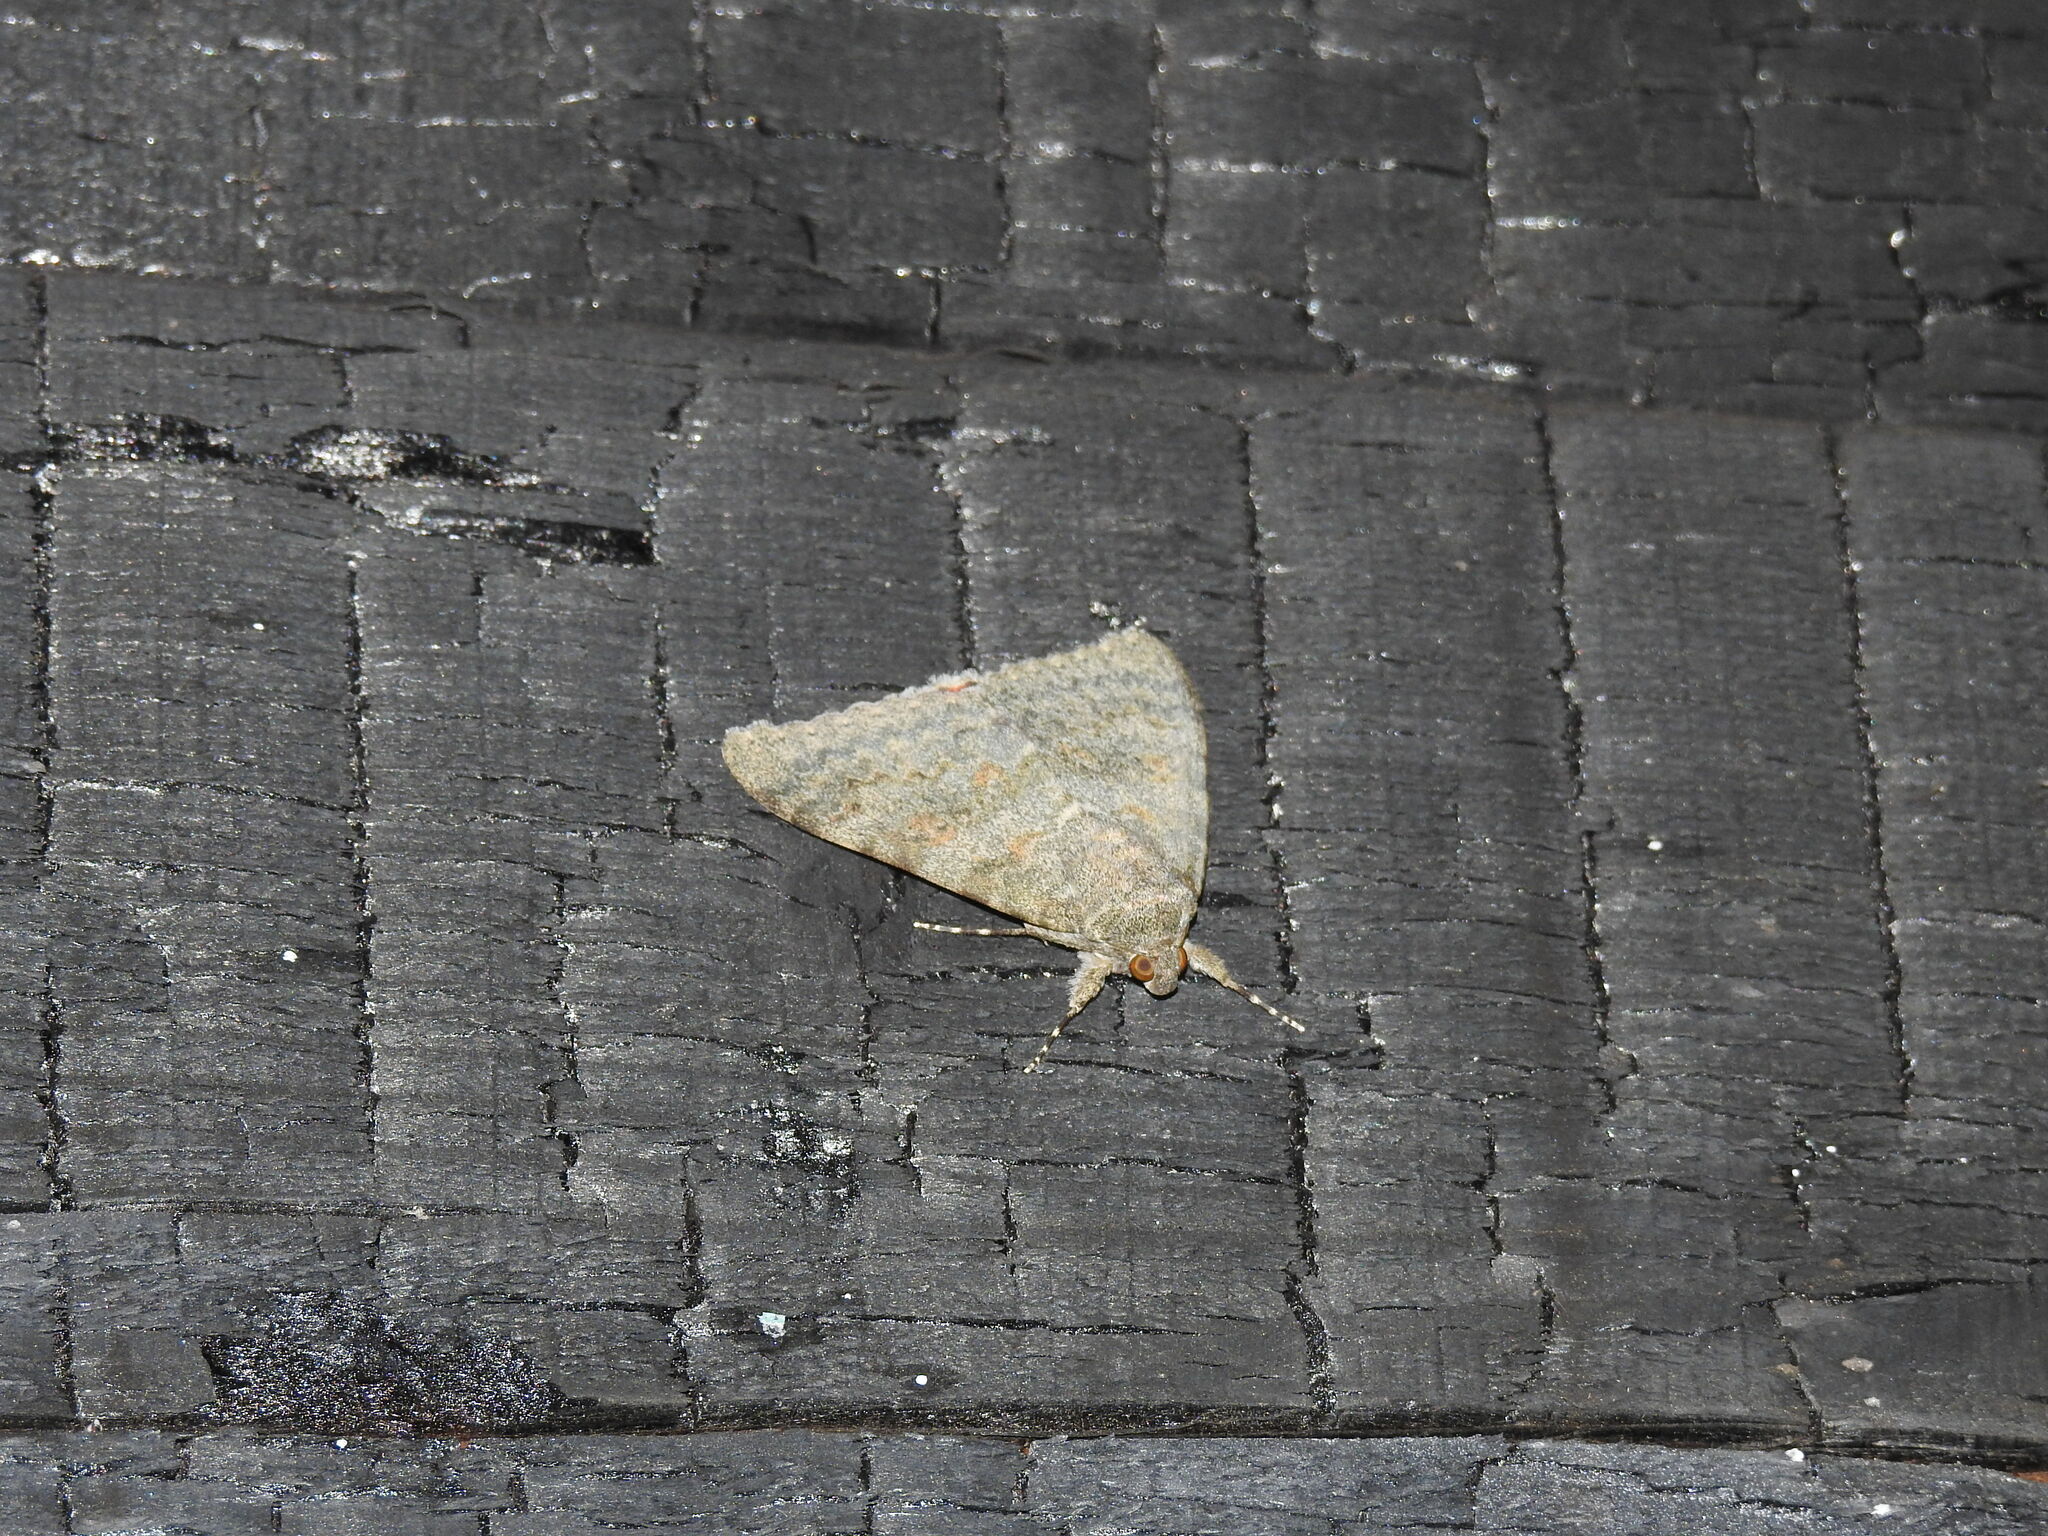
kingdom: Animalia
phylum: Arthropoda
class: Insecta
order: Lepidoptera
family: Erebidae
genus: Catocala
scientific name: Catocala elocata
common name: French red underwing
